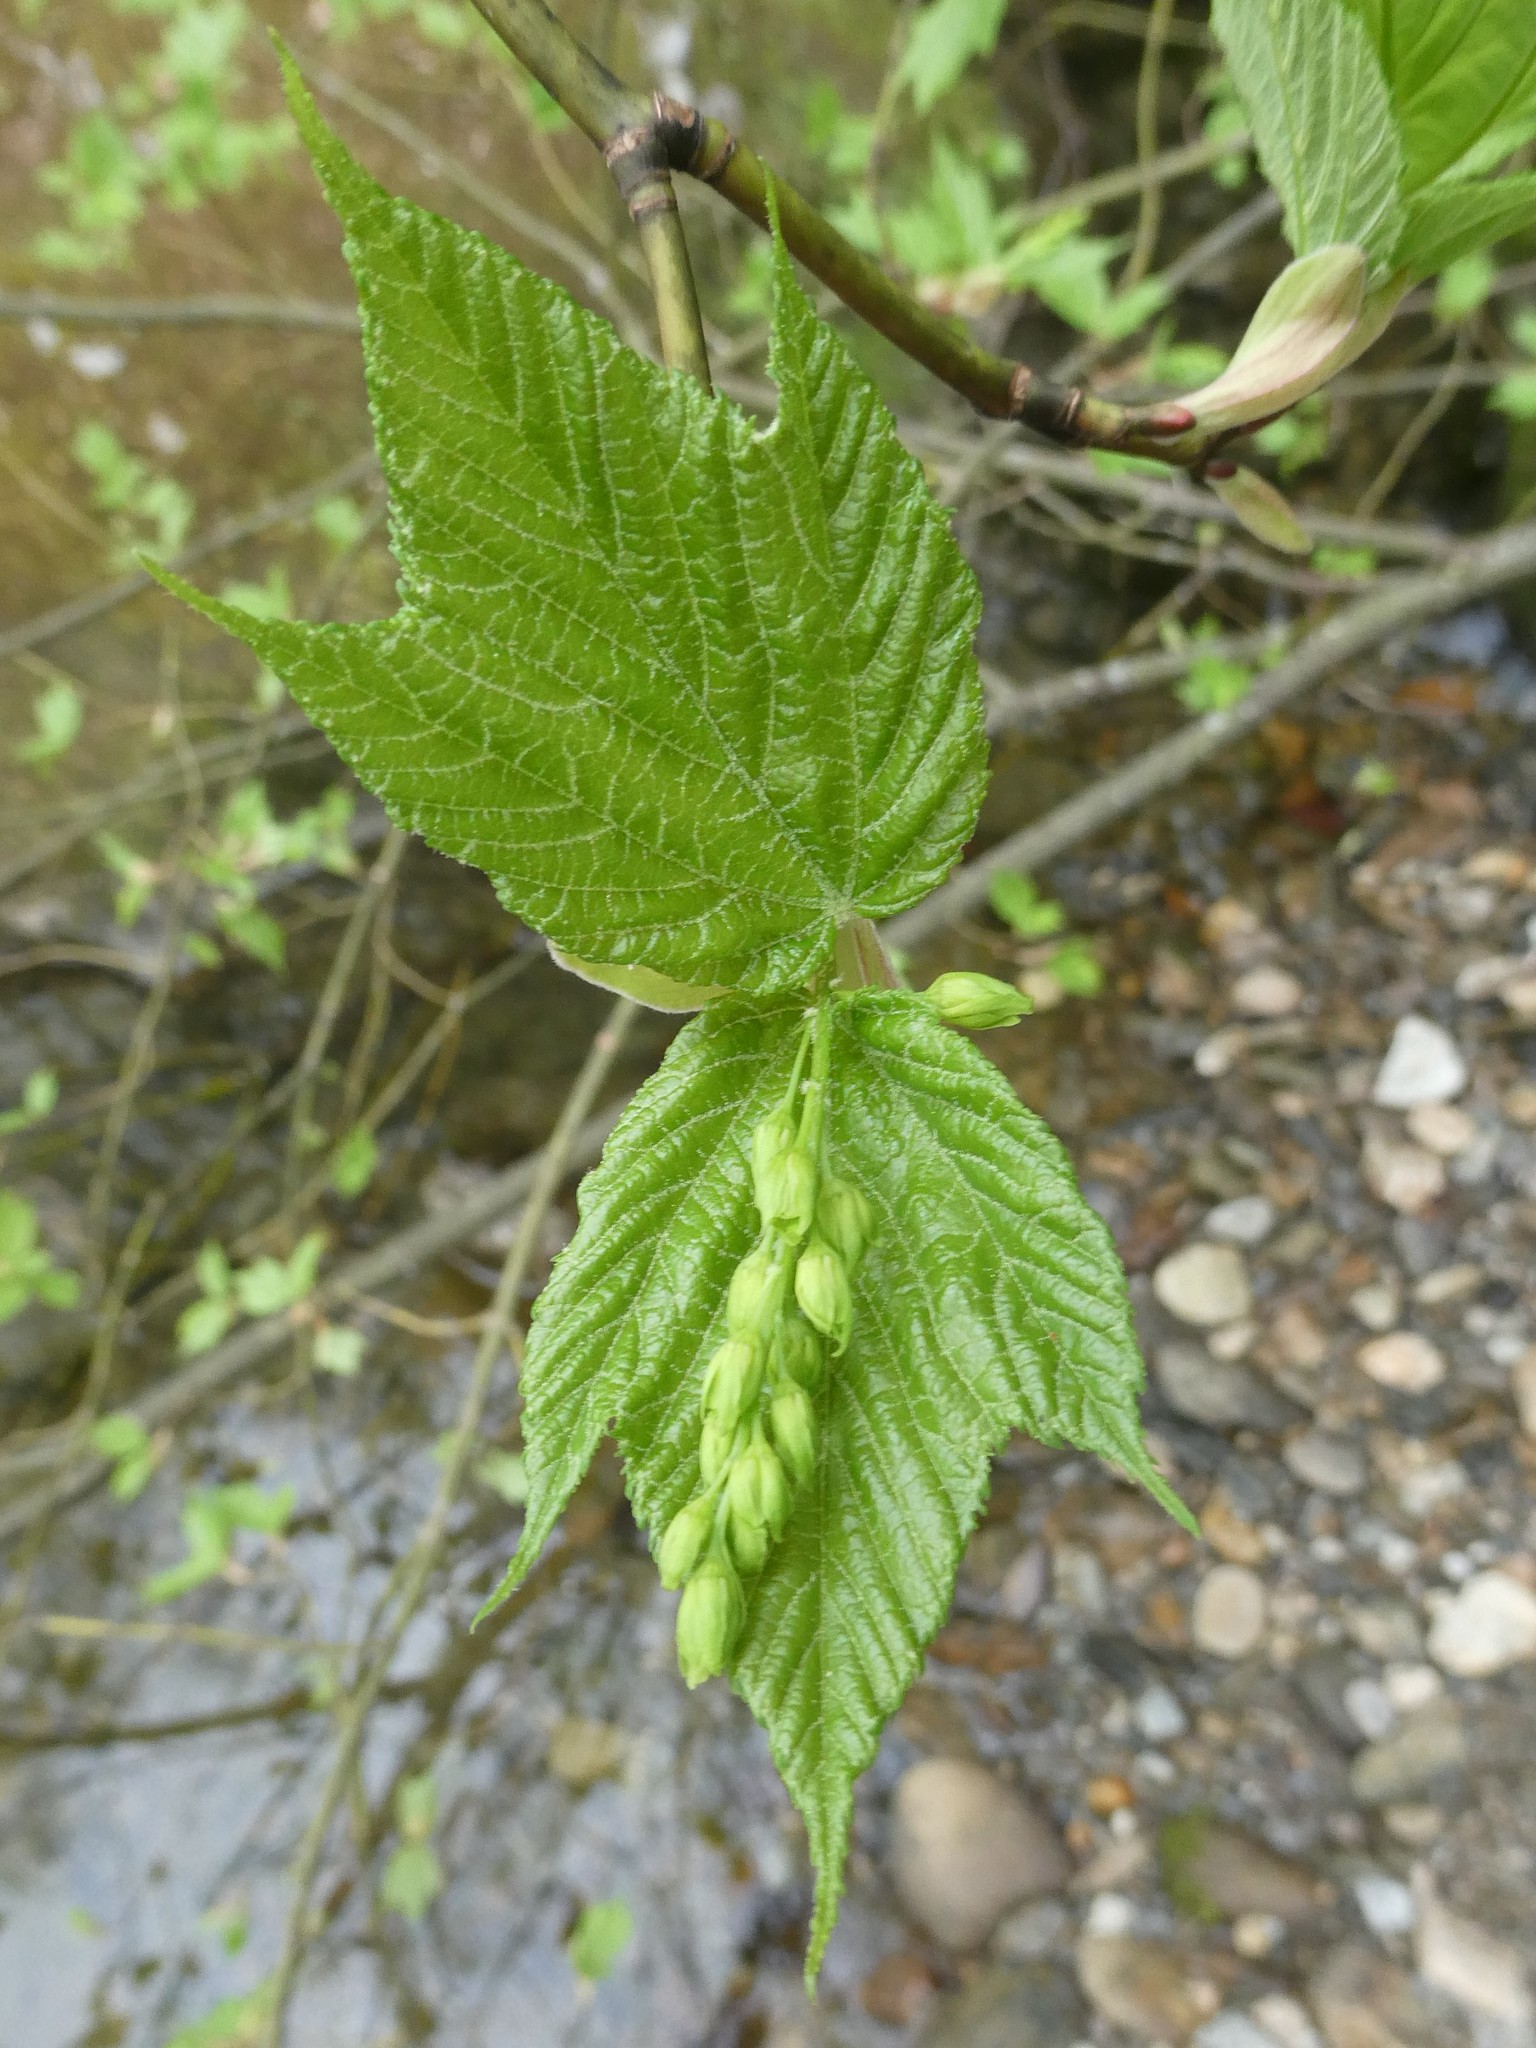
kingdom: Plantae
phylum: Tracheophyta
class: Magnoliopsida
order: Sapindales
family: Sapindaceae
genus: Acer
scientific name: Acer pensylvanicum
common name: Moosewood
